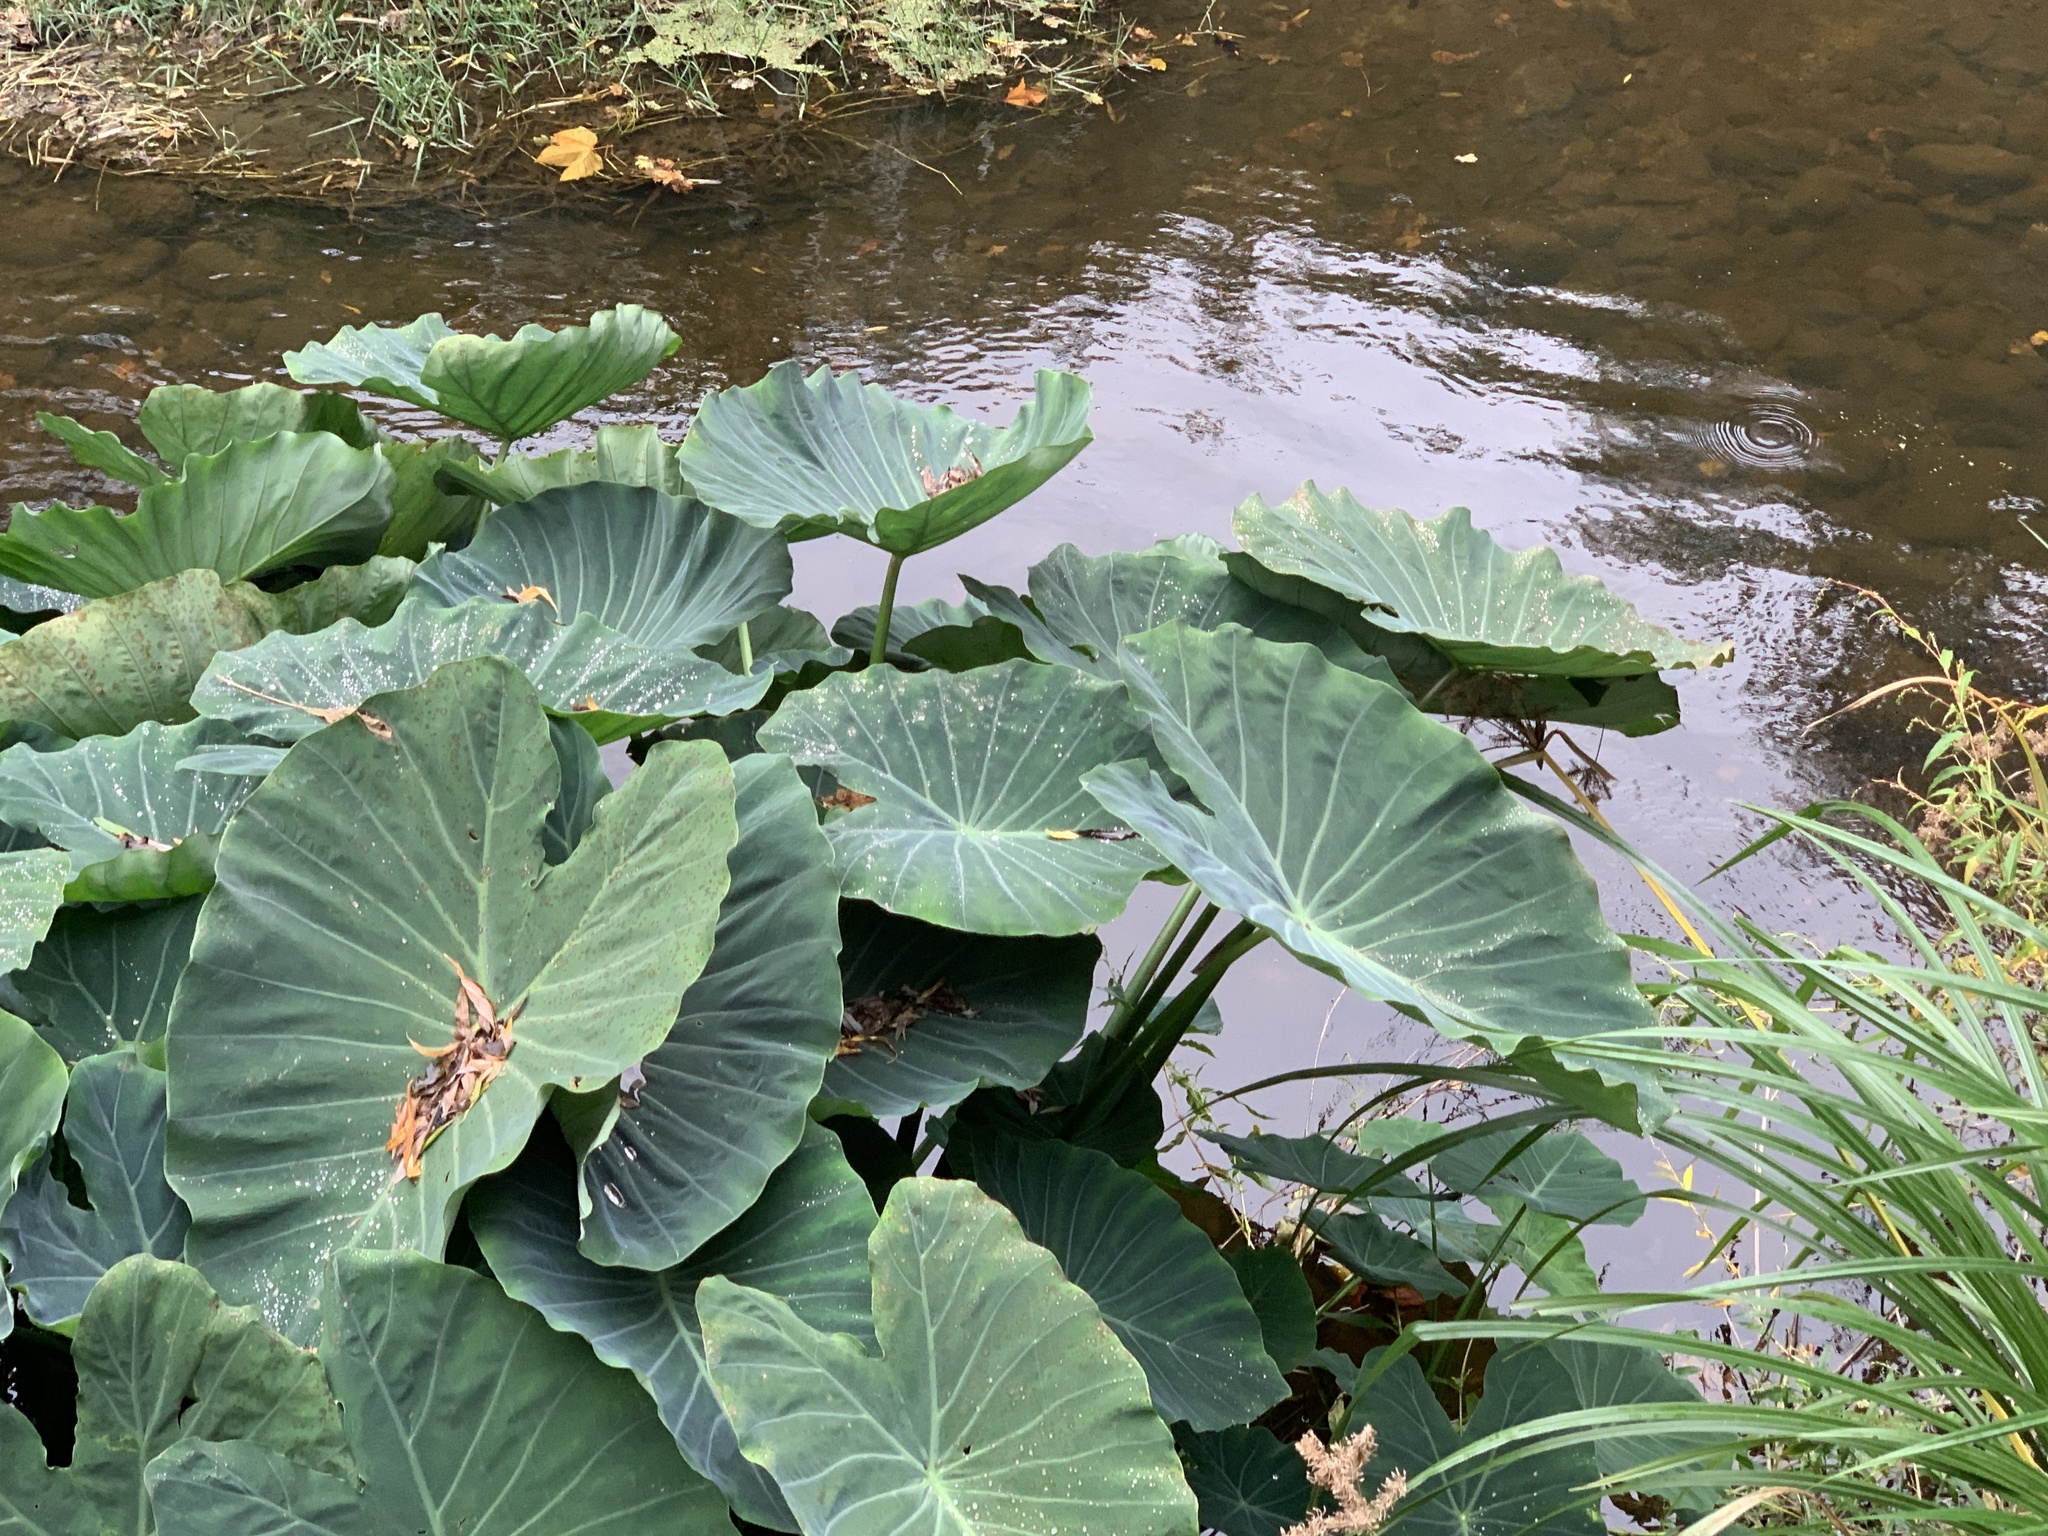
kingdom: Plantae
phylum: Tracheophyta
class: Liliopsida
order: Alismatales
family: Araceae
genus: Colocasia
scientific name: Colocasia esculenta
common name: Taro
